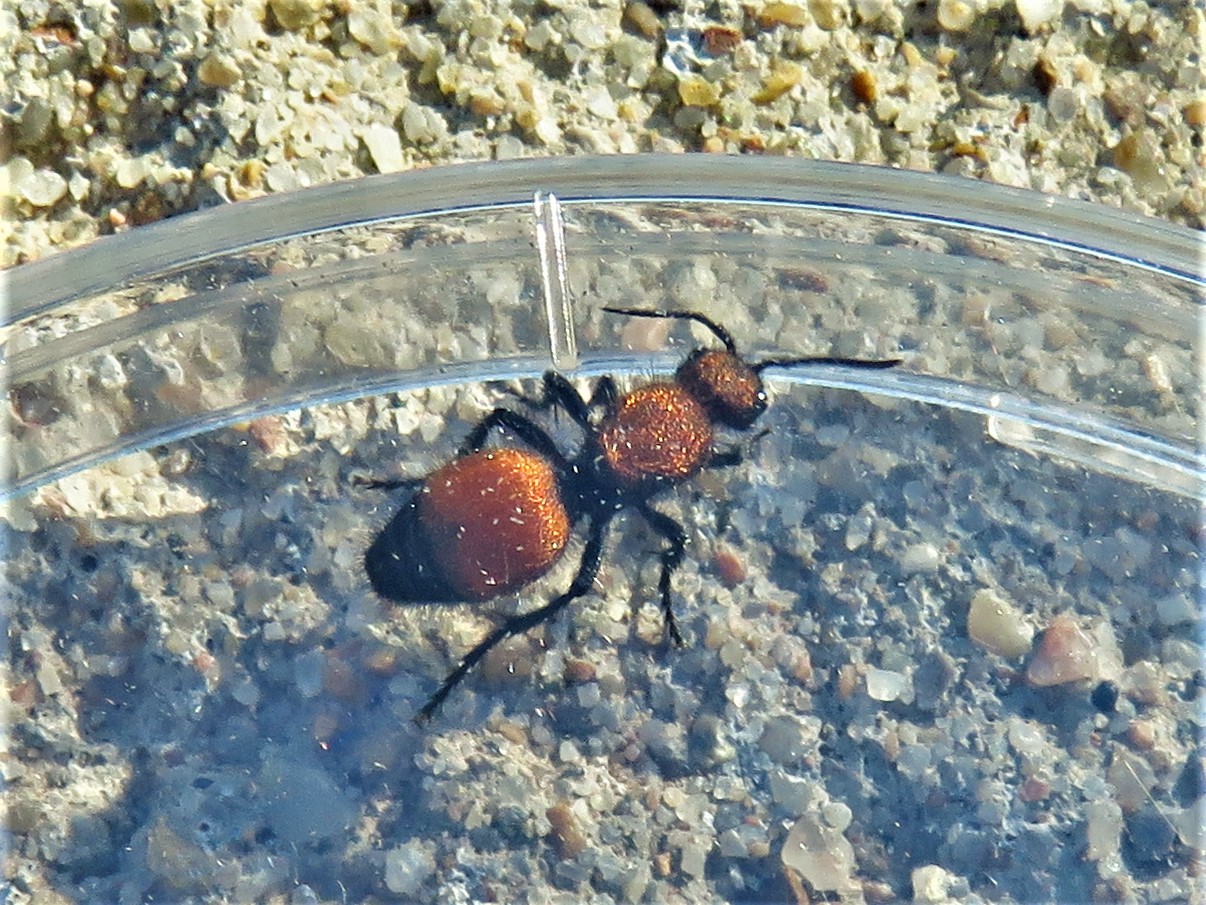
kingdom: Animalia
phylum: Arthropoda
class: Insecta
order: Hymenoptera
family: Mutillidae
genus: Dasymutilla
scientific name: Dasymutilla
